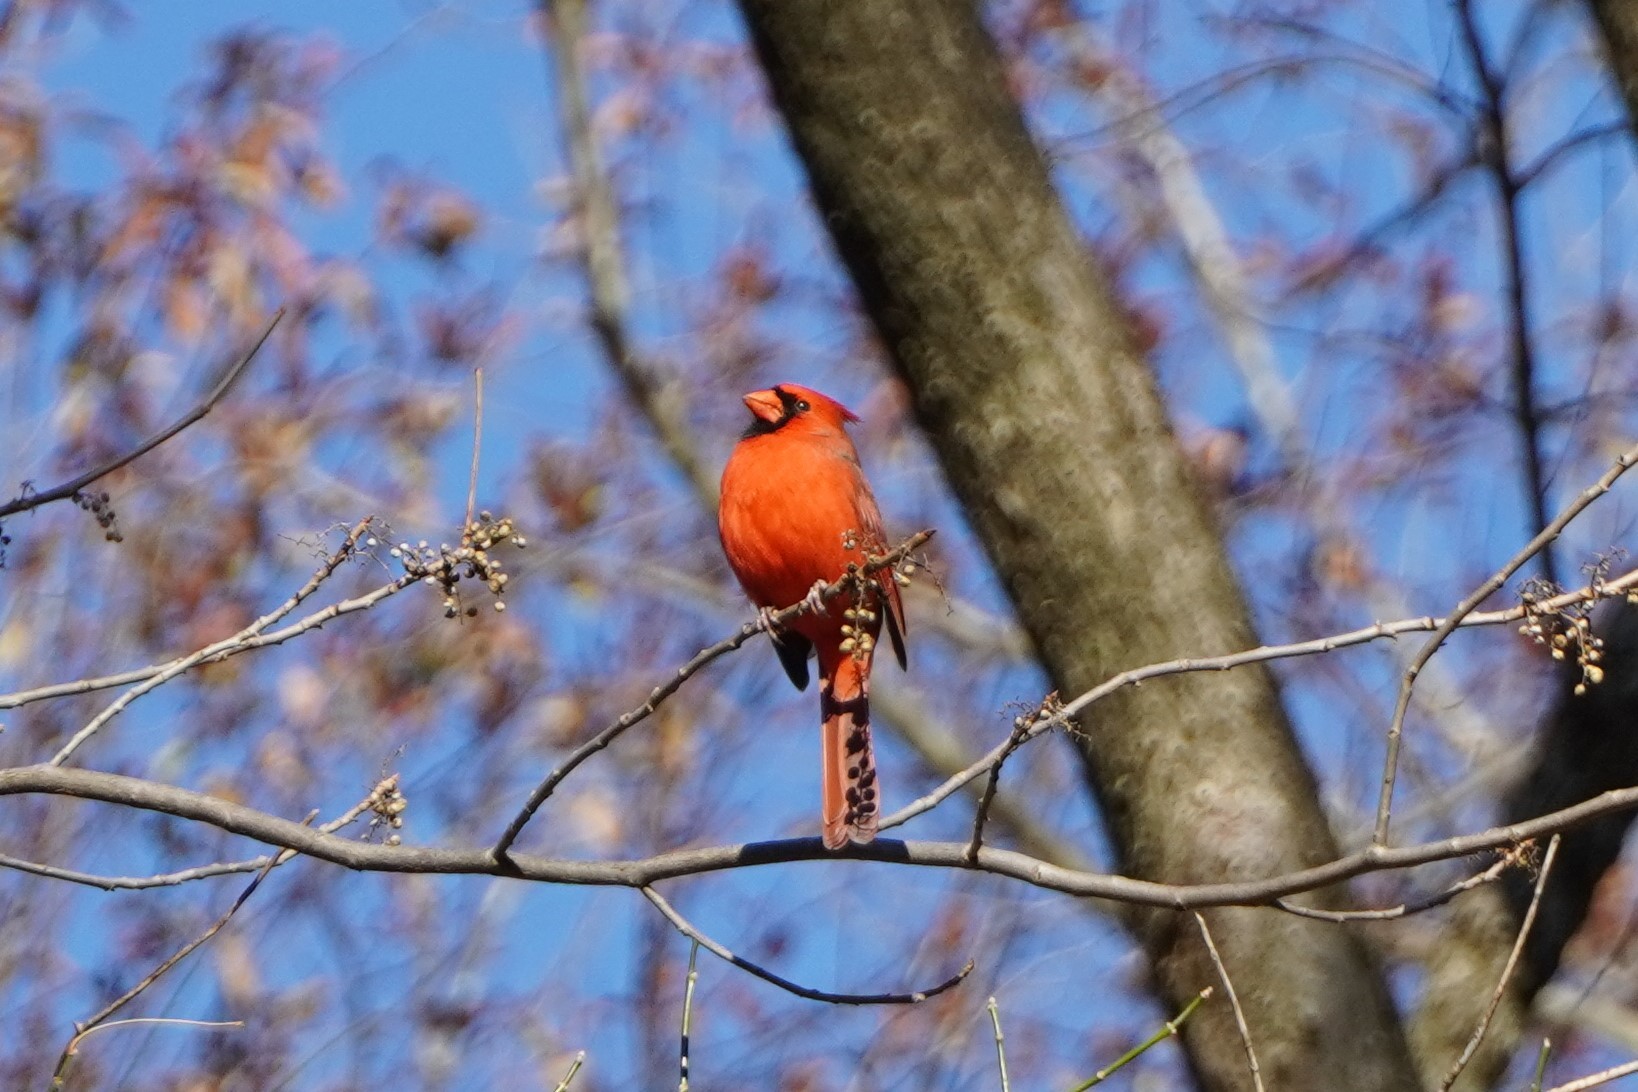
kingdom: Animalia
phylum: Chordata
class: Aves
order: Passeriformes
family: Cardinalidae
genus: Cardinalis
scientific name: Cardinalis cardinalis
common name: Northern cardinal
